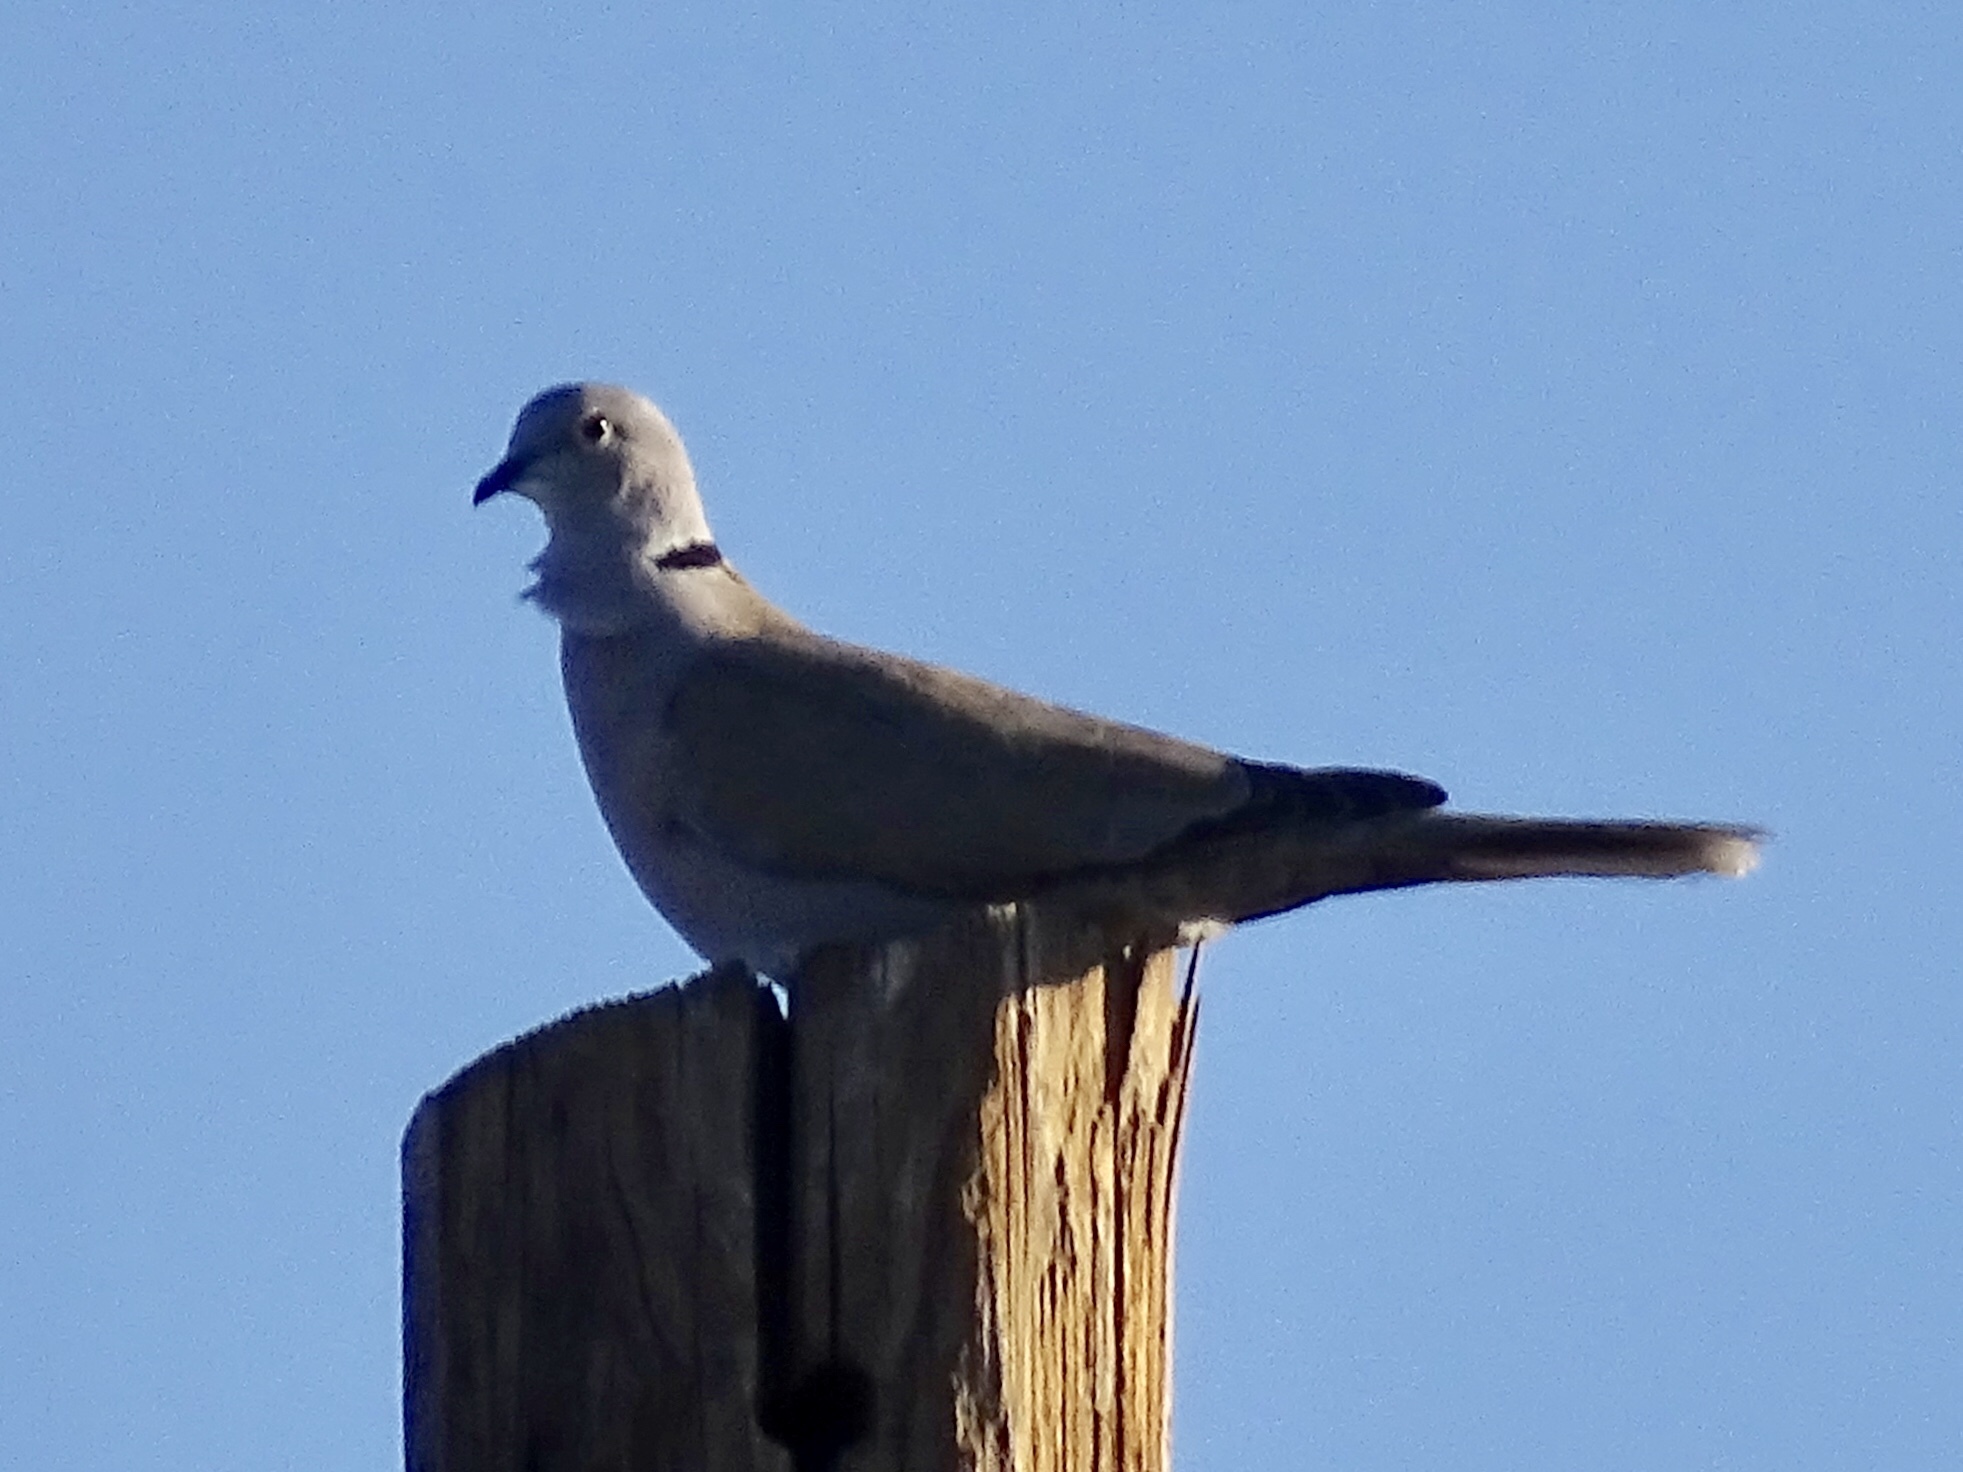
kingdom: Animalia
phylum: Chordata
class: Aves
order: Columbiformes
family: Columbidae
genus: Streptopelia
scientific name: Streptopelia decaocto
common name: Eurasian collared dove
